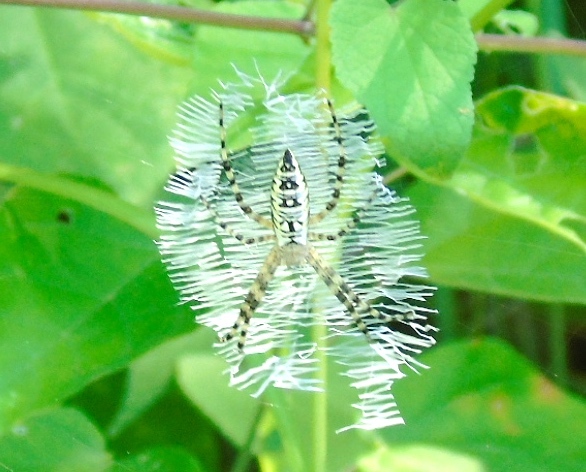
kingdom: Animalia
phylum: Arthropoda
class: Arachnida
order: Araneae
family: Araneidae
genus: Argiope
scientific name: Argiope aurantia
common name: Orb weavers
